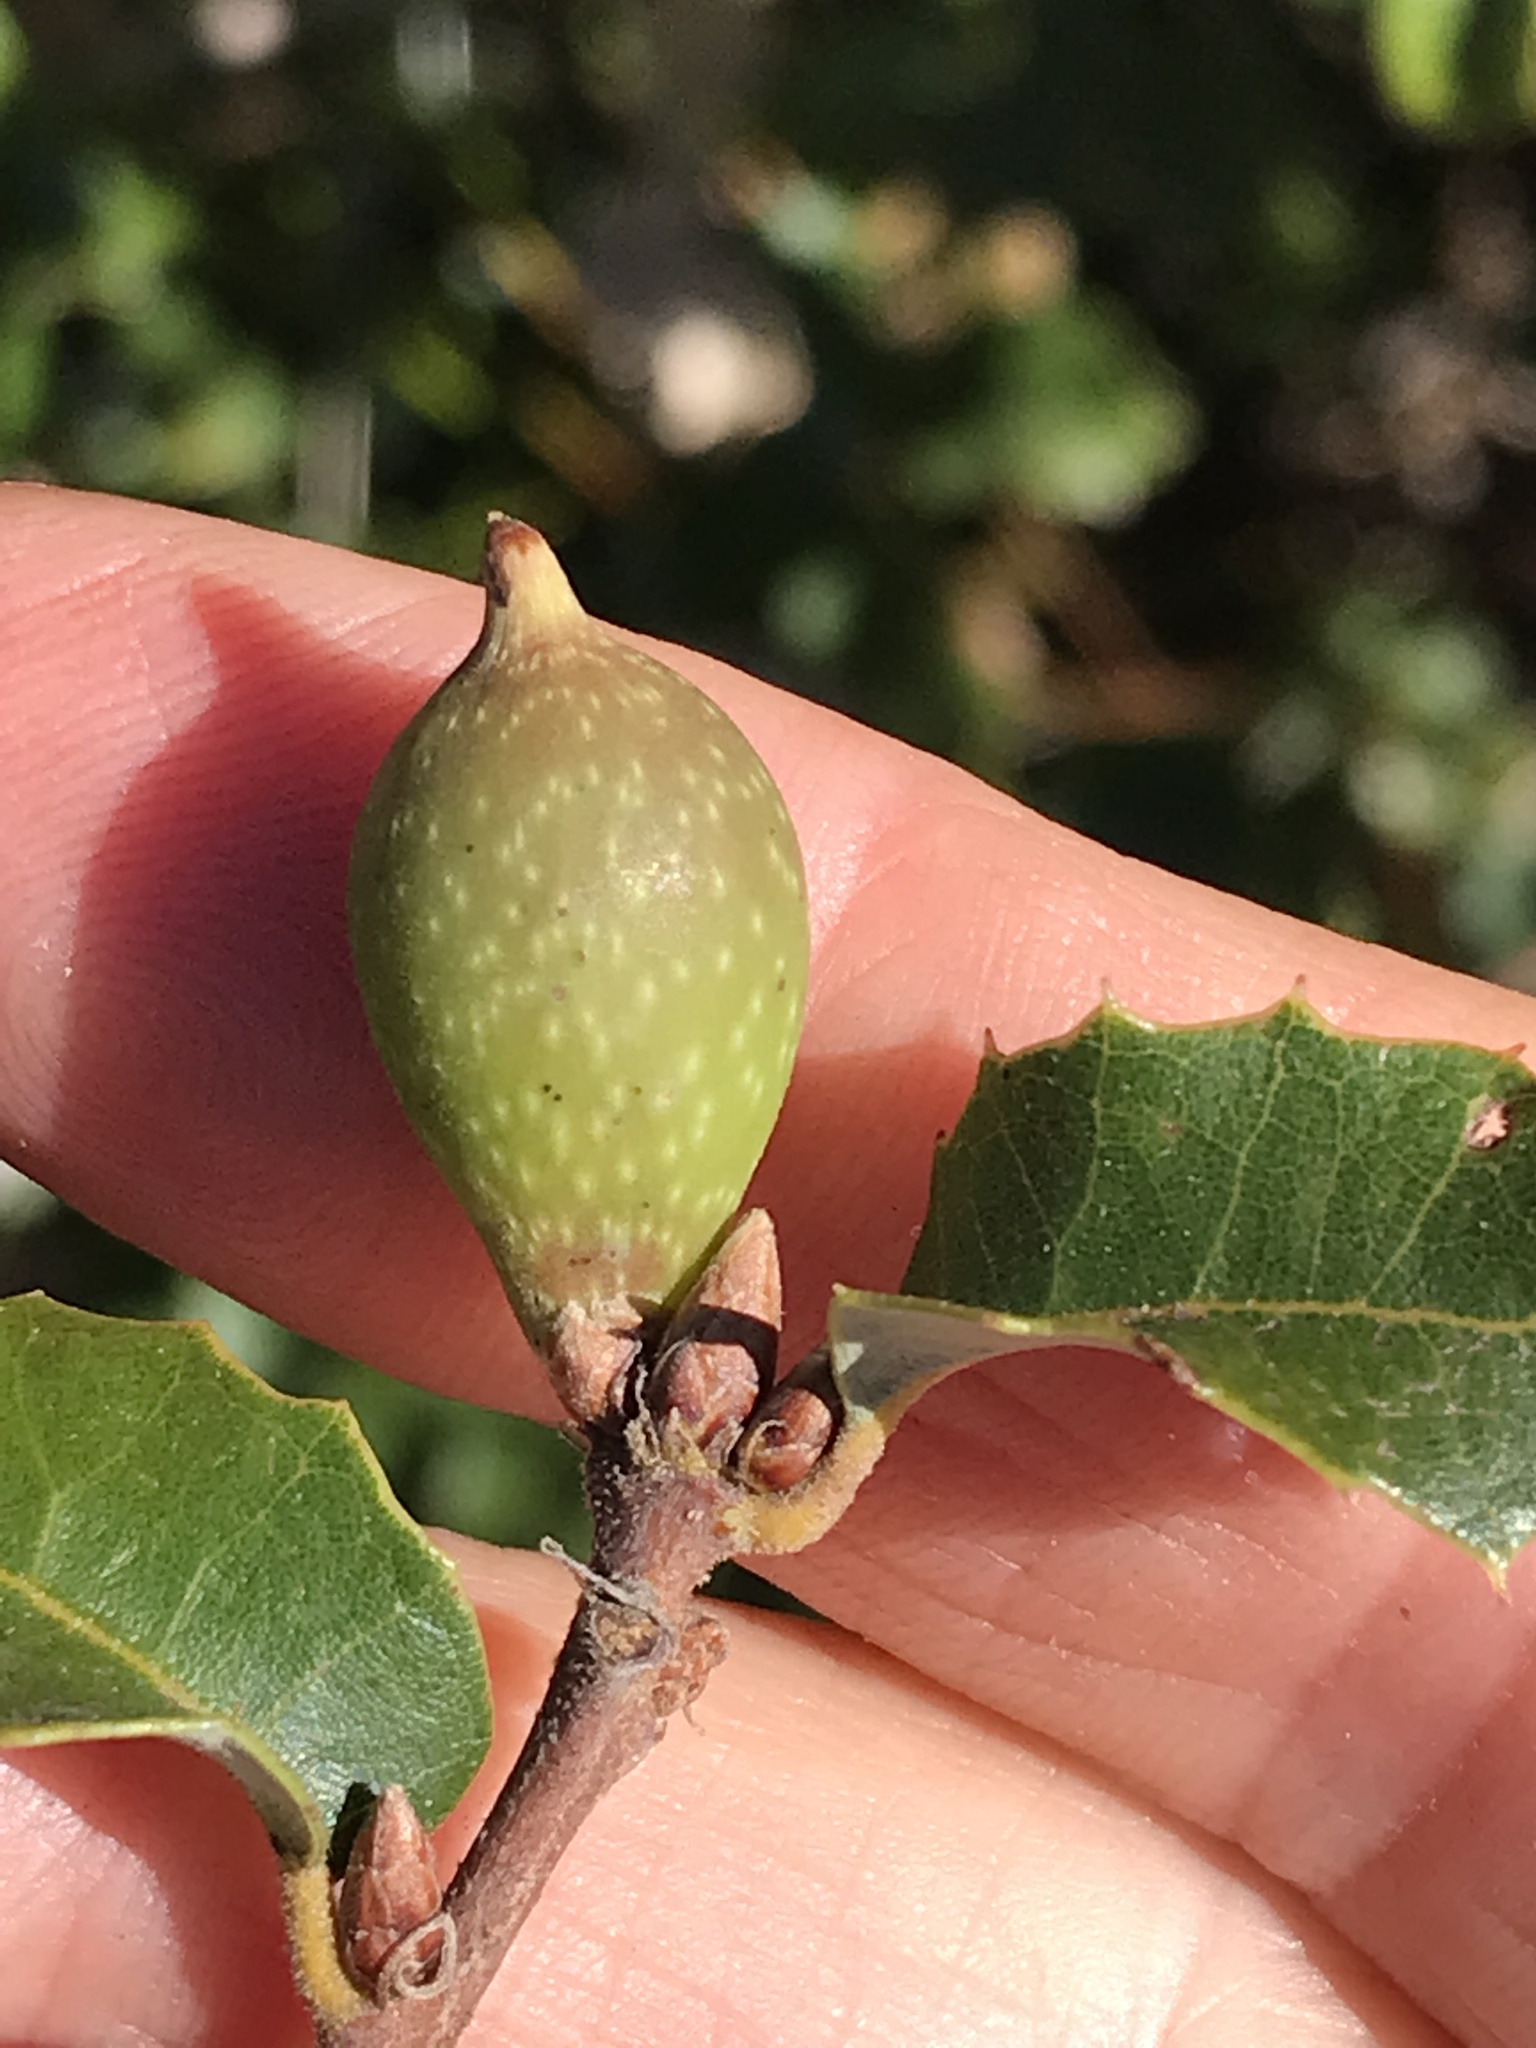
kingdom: Animalia
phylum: Arthropoda
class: Insecta
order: Hymenoptera
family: Cynipidae
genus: Heteroecus
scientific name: Heteroecus pacificus
